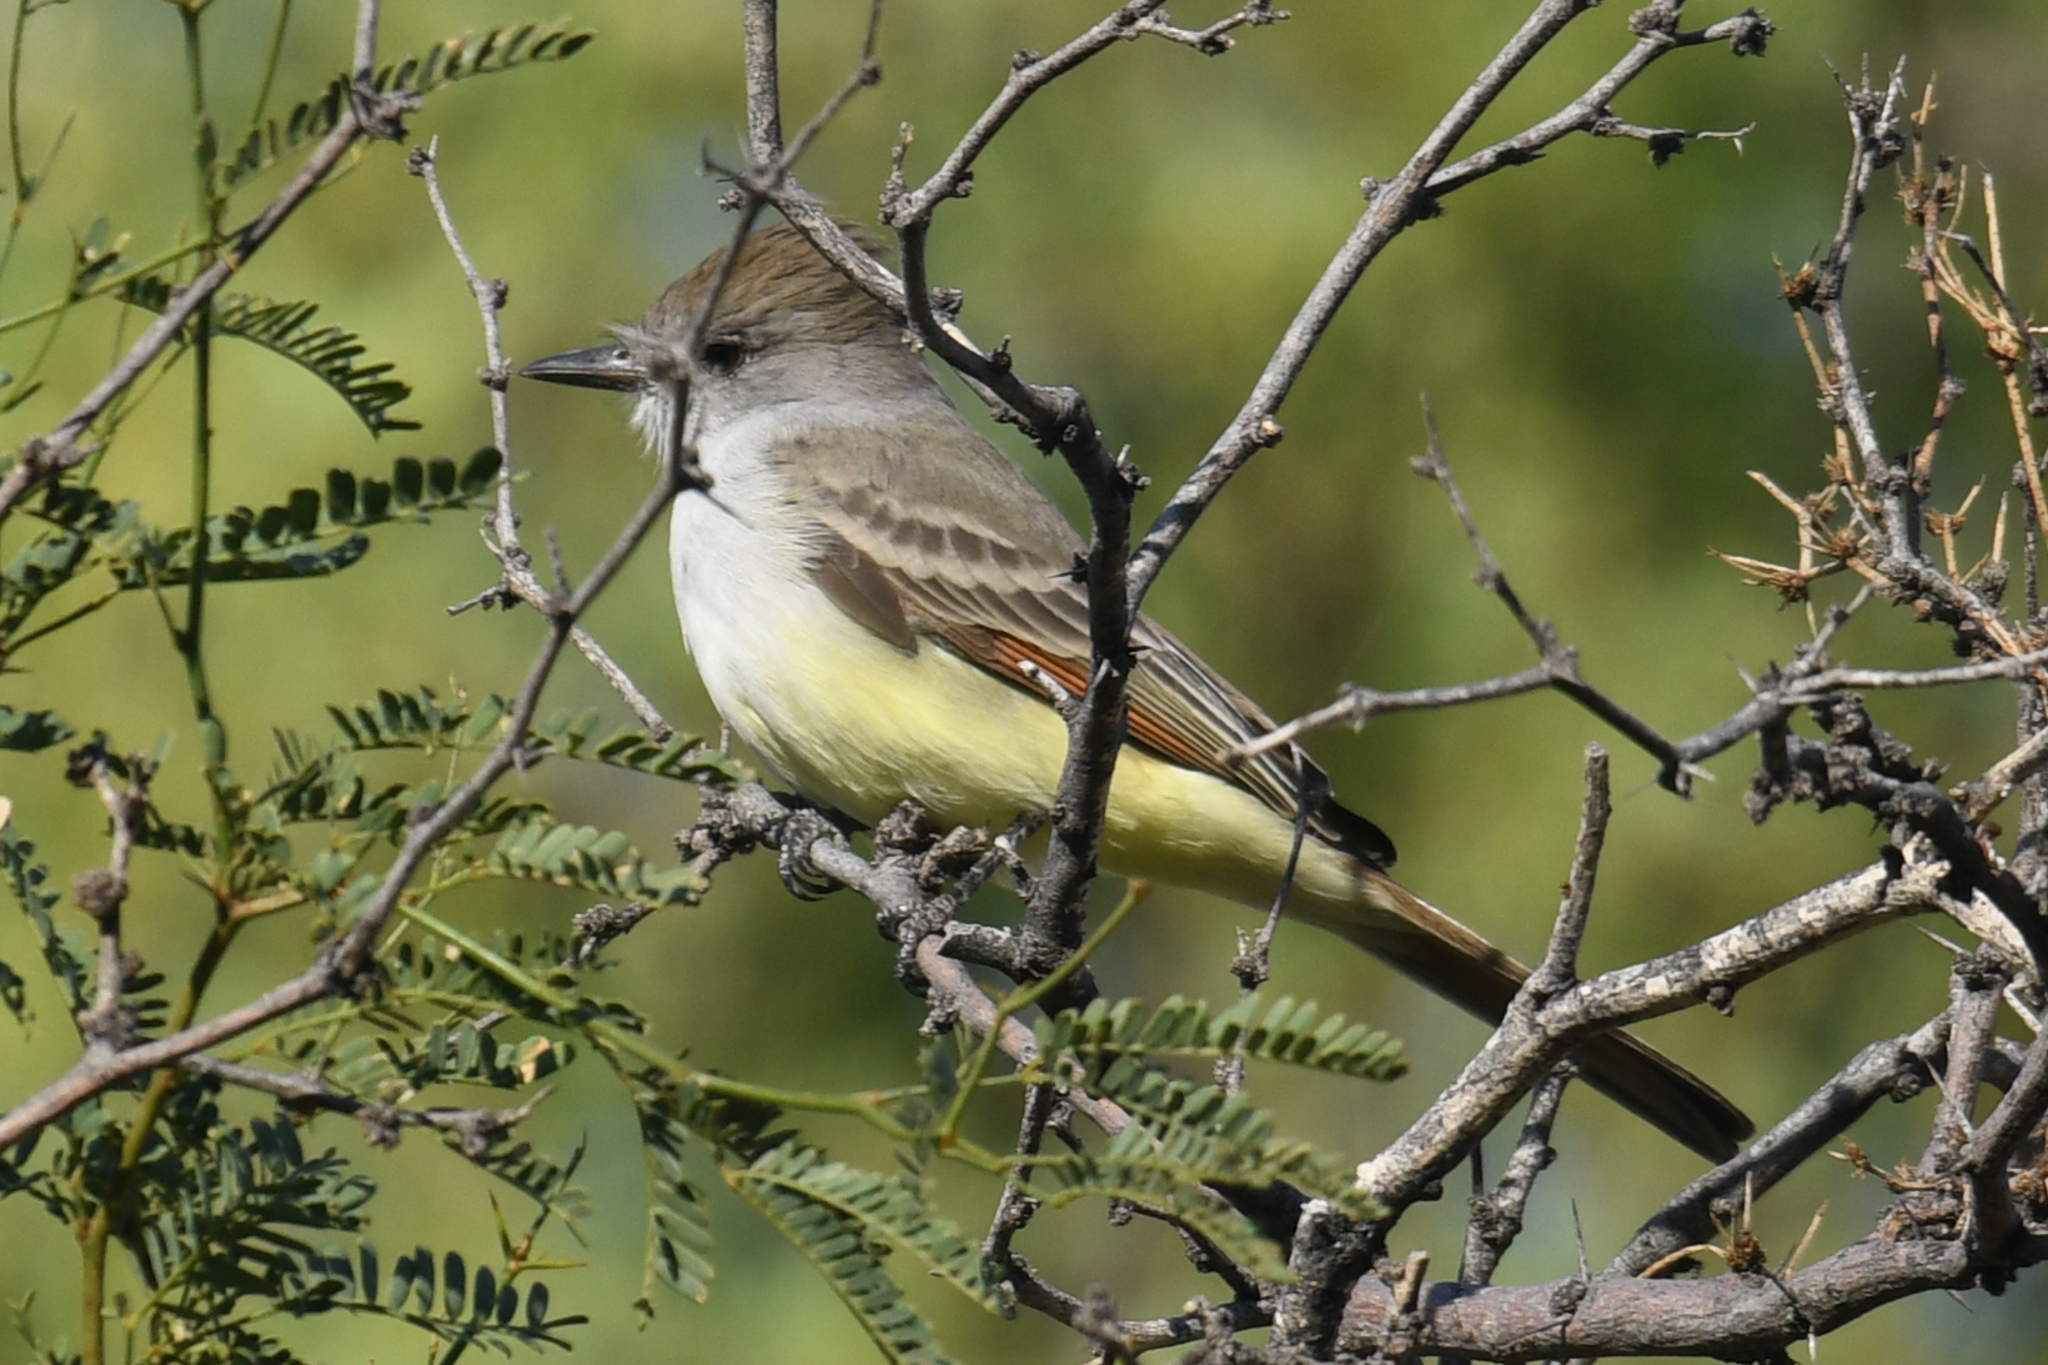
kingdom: Animalia
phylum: Chordata
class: Aves
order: Passeriformes
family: Tyrannidae
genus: Myiarchus
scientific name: Myiarchus cinerascens
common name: Ash-throated flycatcher
